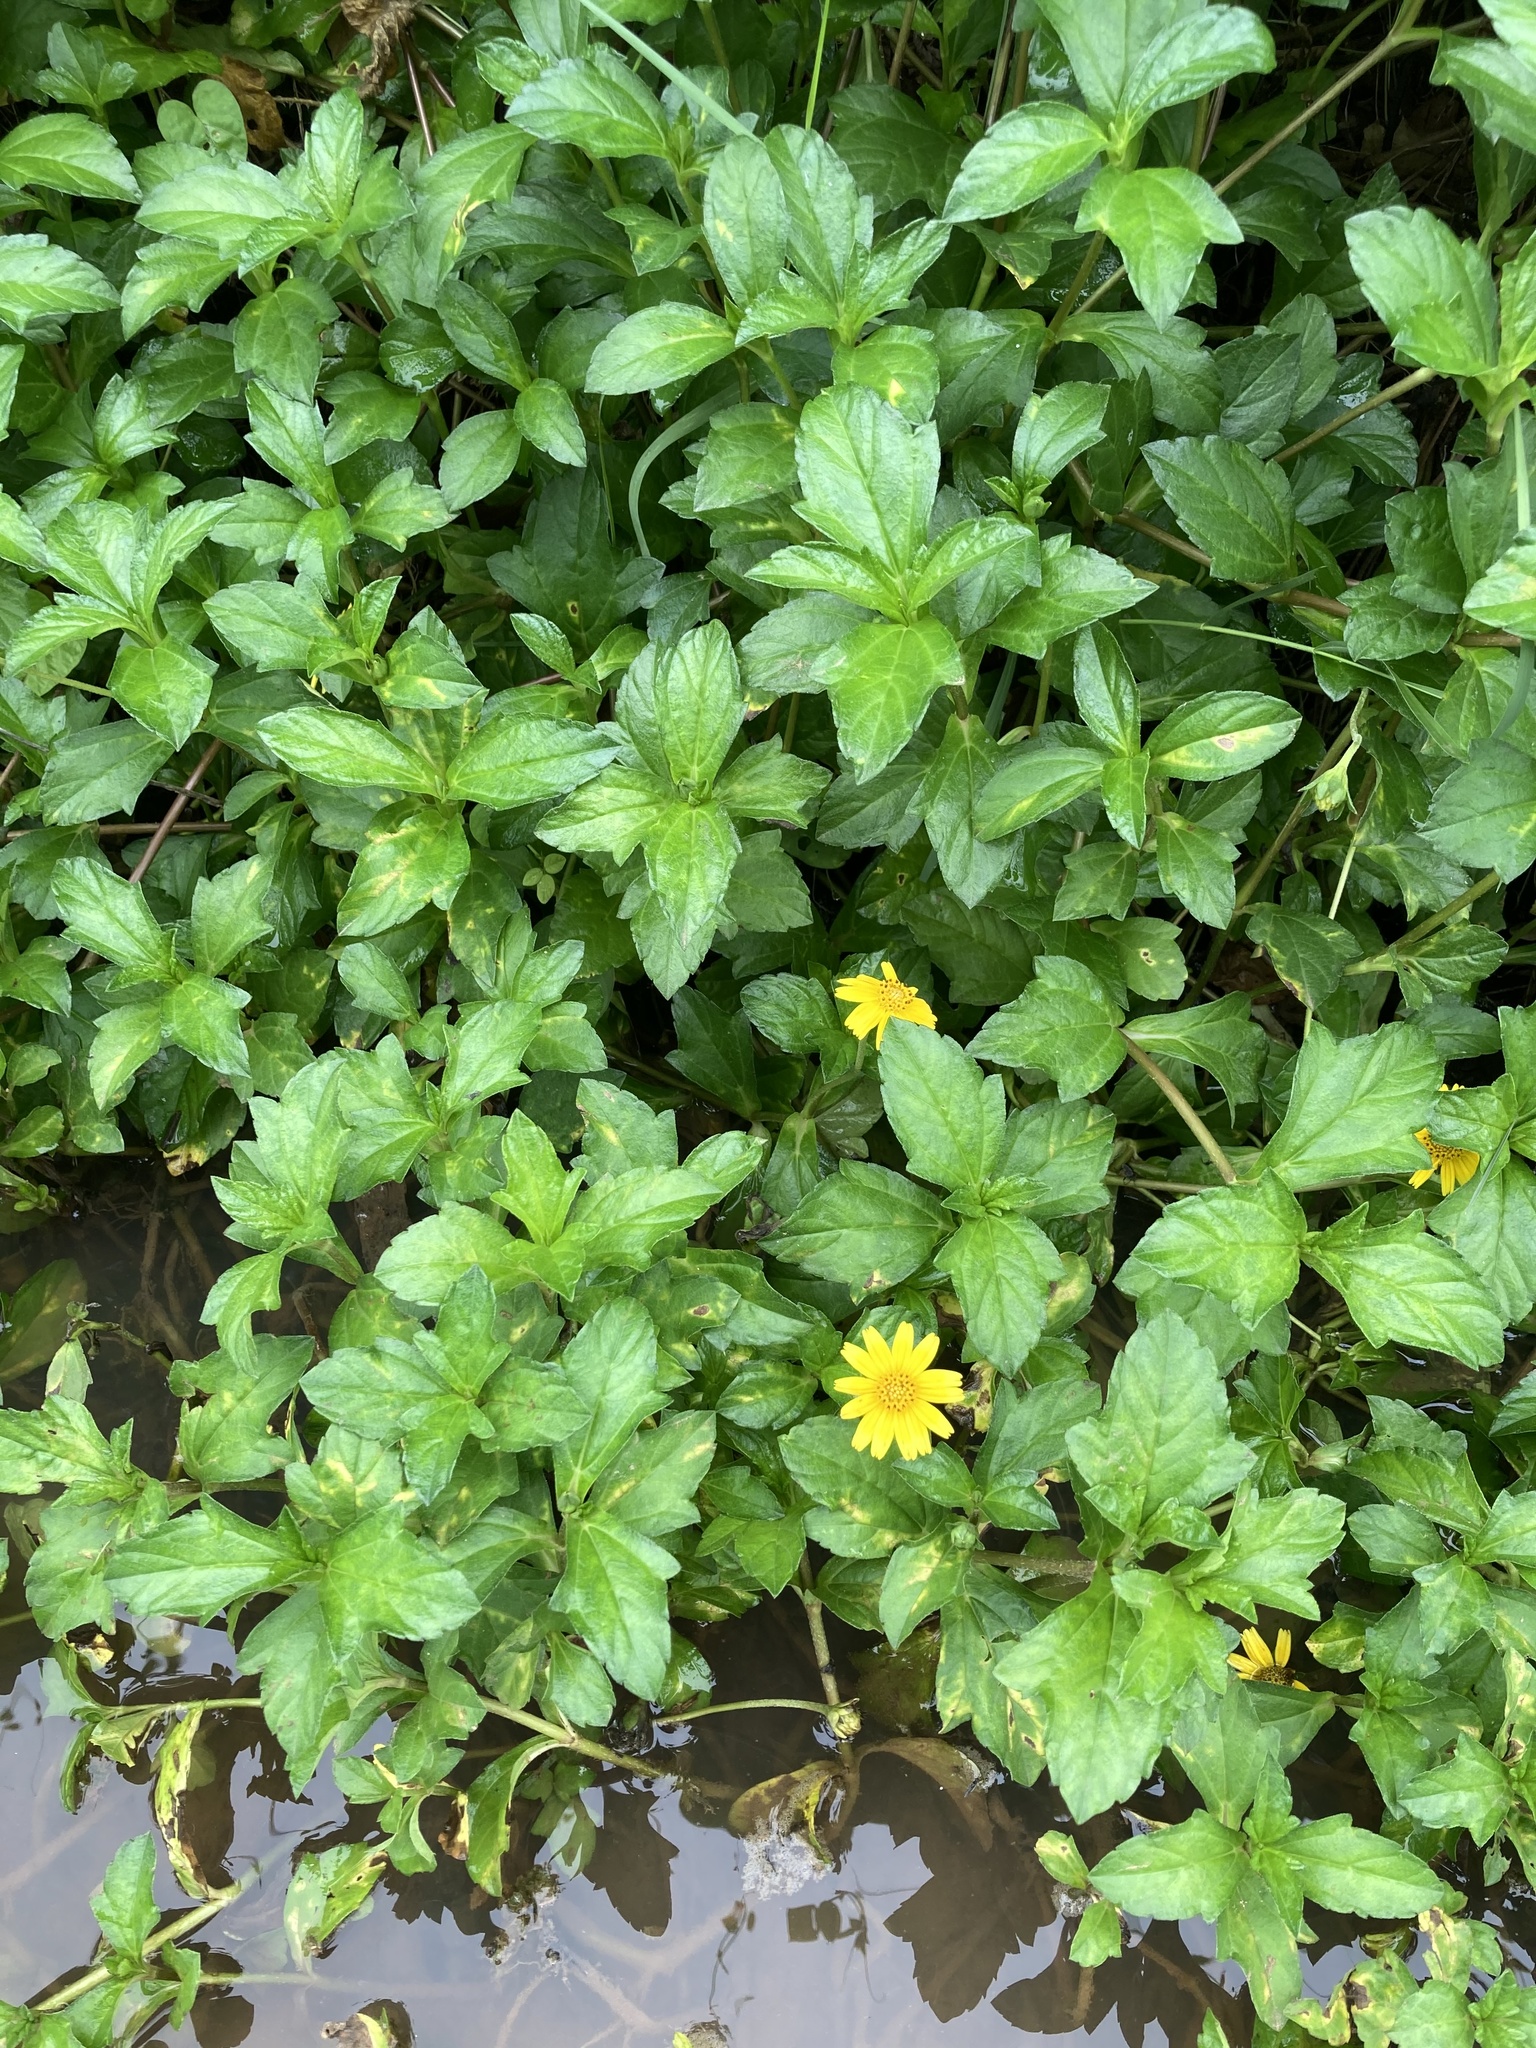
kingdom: Plantae
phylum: Tracheophyta
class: Magnoliopsida
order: Asterales
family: Asteraceae
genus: Sphagneticola
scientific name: Sphagneticola trilobata
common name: Bay biscayne creeping-oxeye
